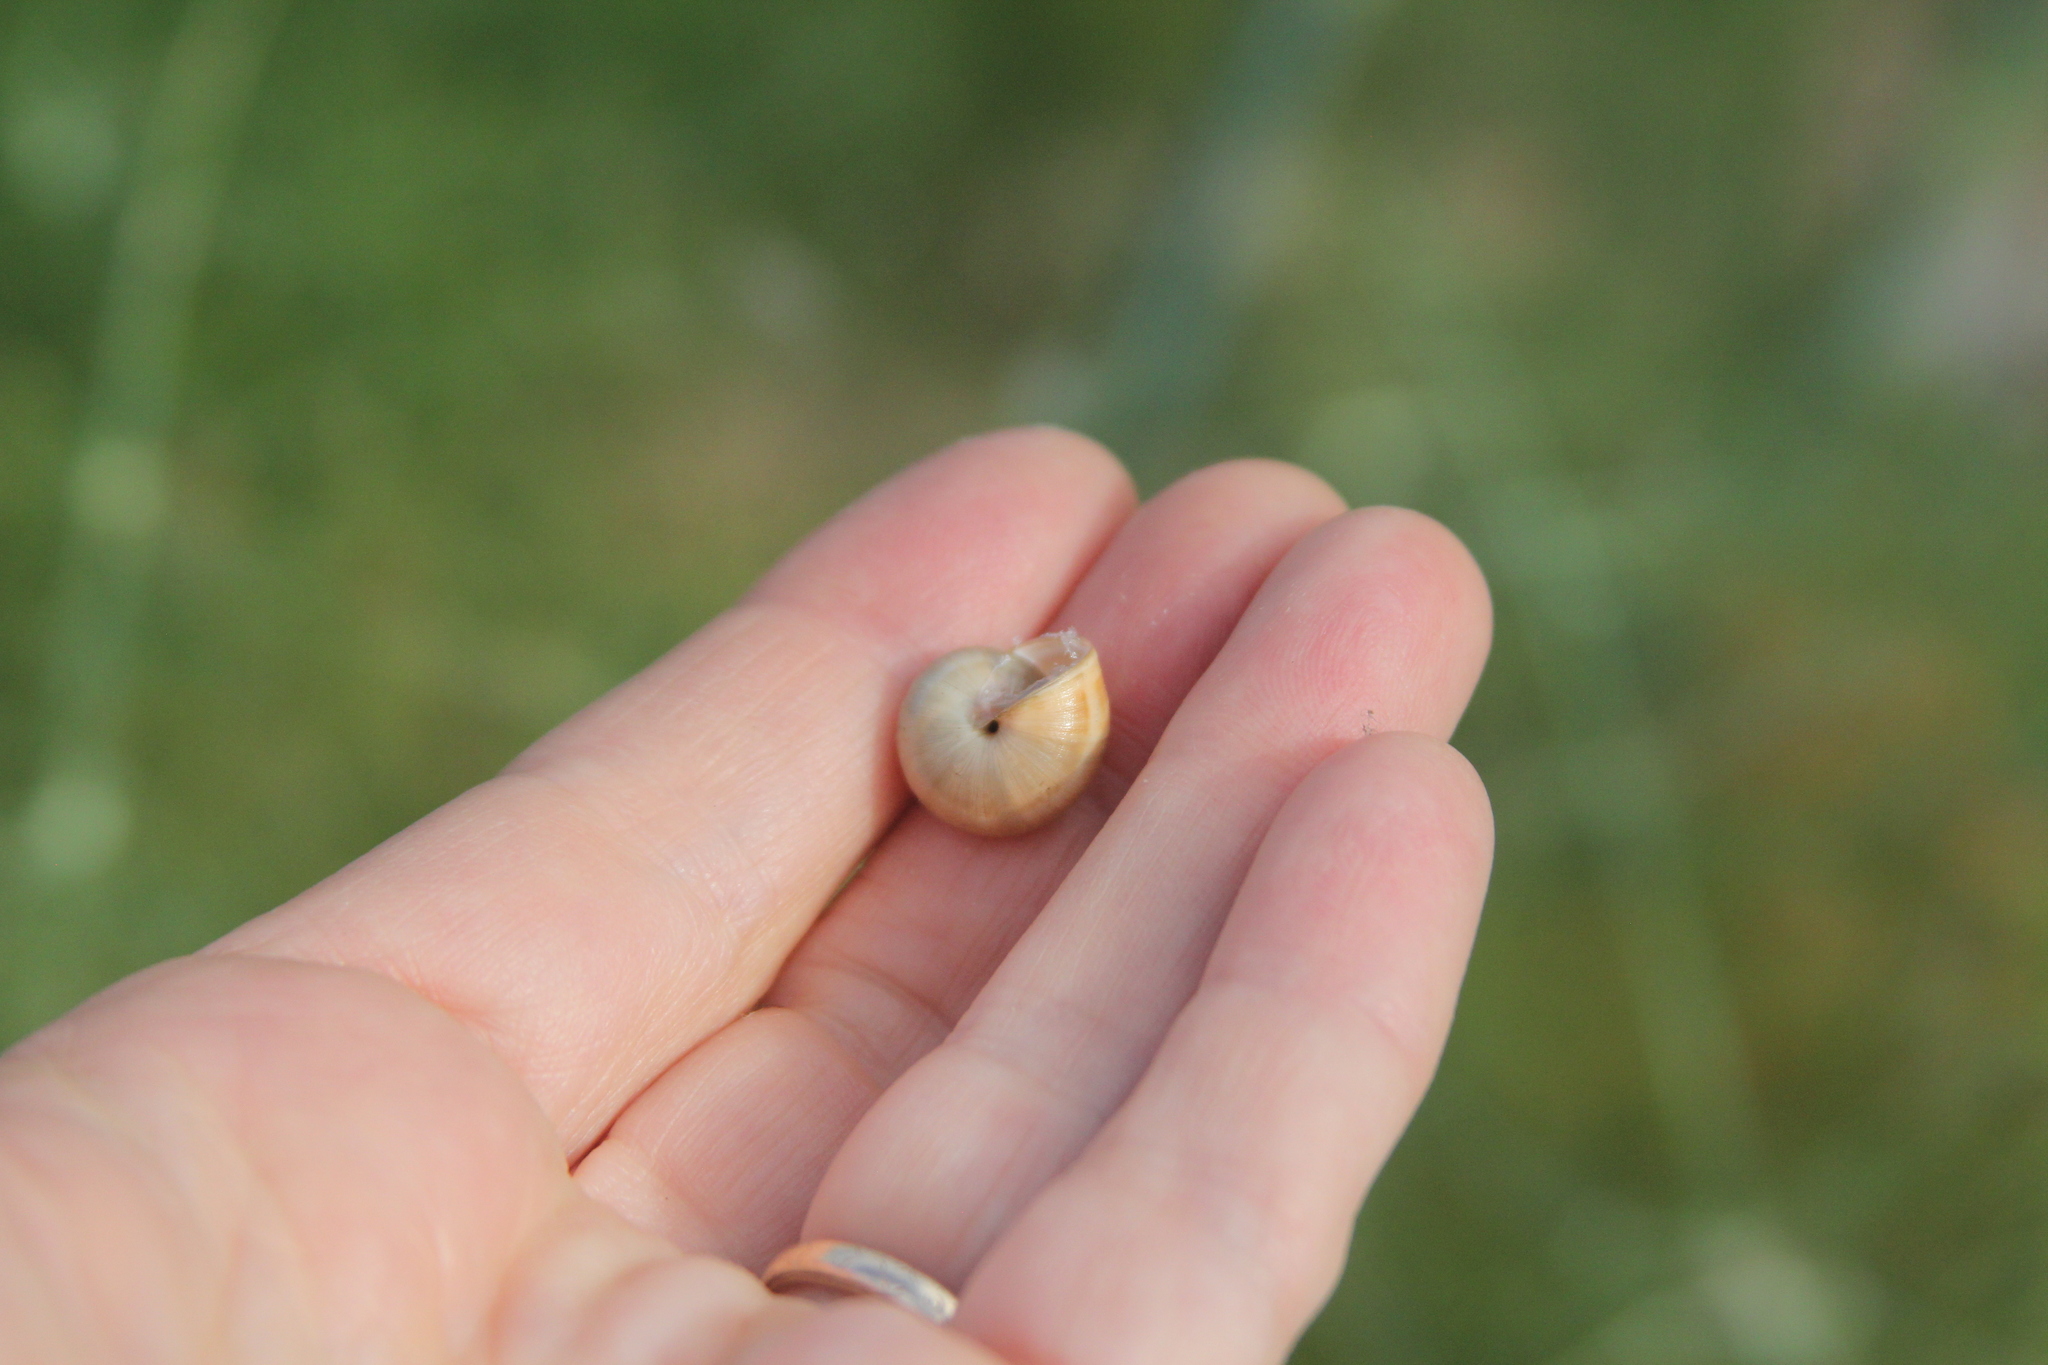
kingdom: Animalia
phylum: Mollusca
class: Gastropoda
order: Stylommatophora
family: Helicidae
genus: Theba
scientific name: Theba pisana
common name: White snail
